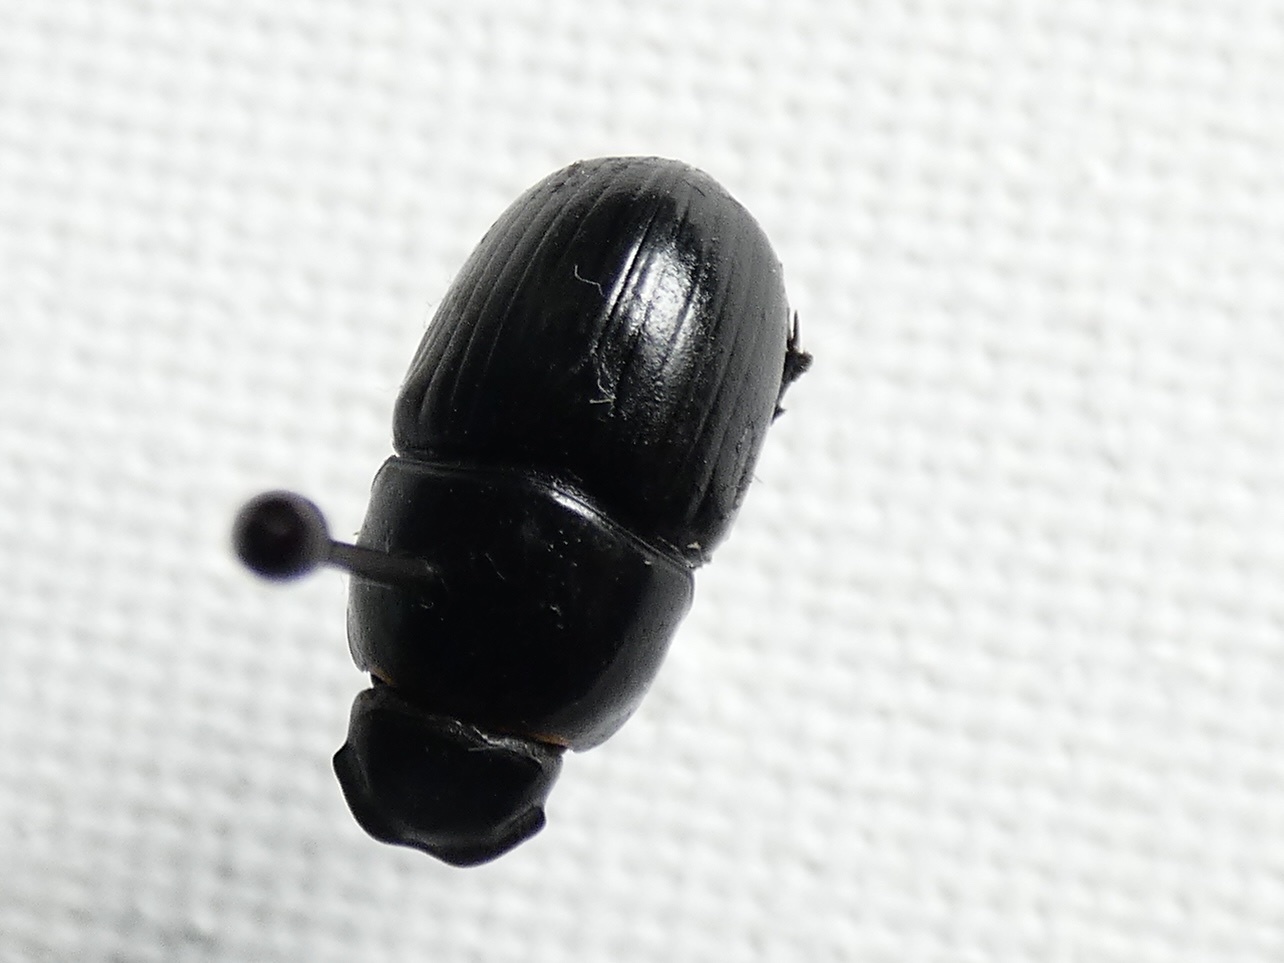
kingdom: Animalia
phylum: Arthropoda
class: Insecta
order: Coleoptera
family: Scarabaeidae
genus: Teuchestes
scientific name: Teuchestes fossor
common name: Digger small dung beetle
